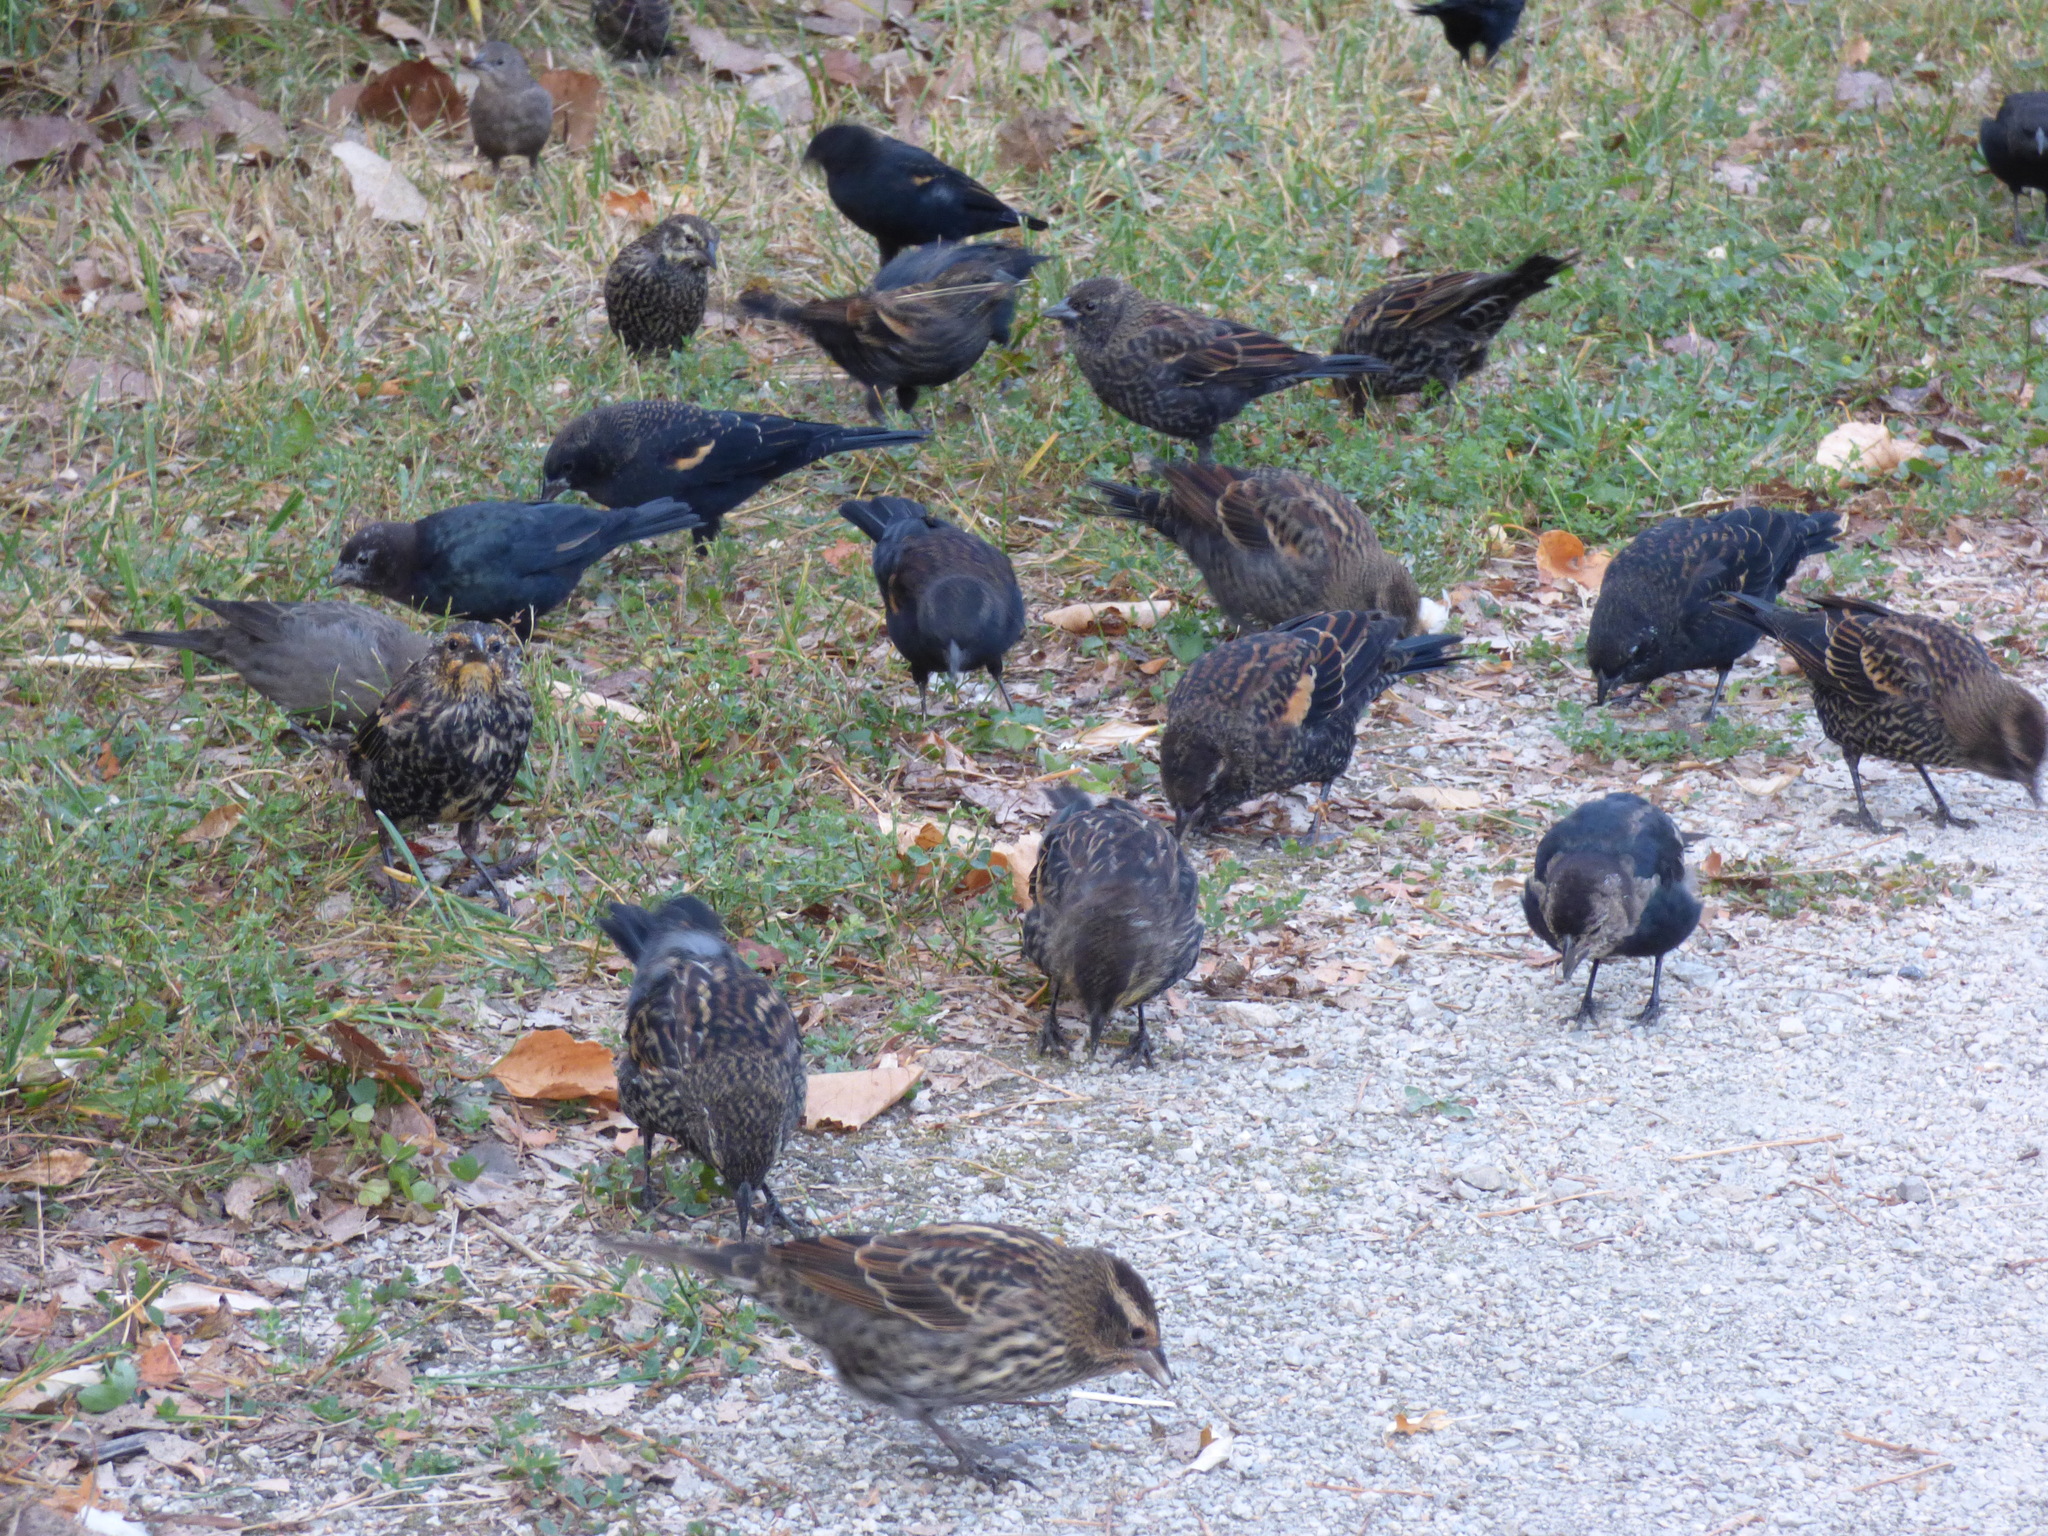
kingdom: Animalia
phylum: Chordata
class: Aves
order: Passeriformes
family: Icteridae
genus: Molothrus
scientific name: Molothrus ater
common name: Brown-headed cowbird
